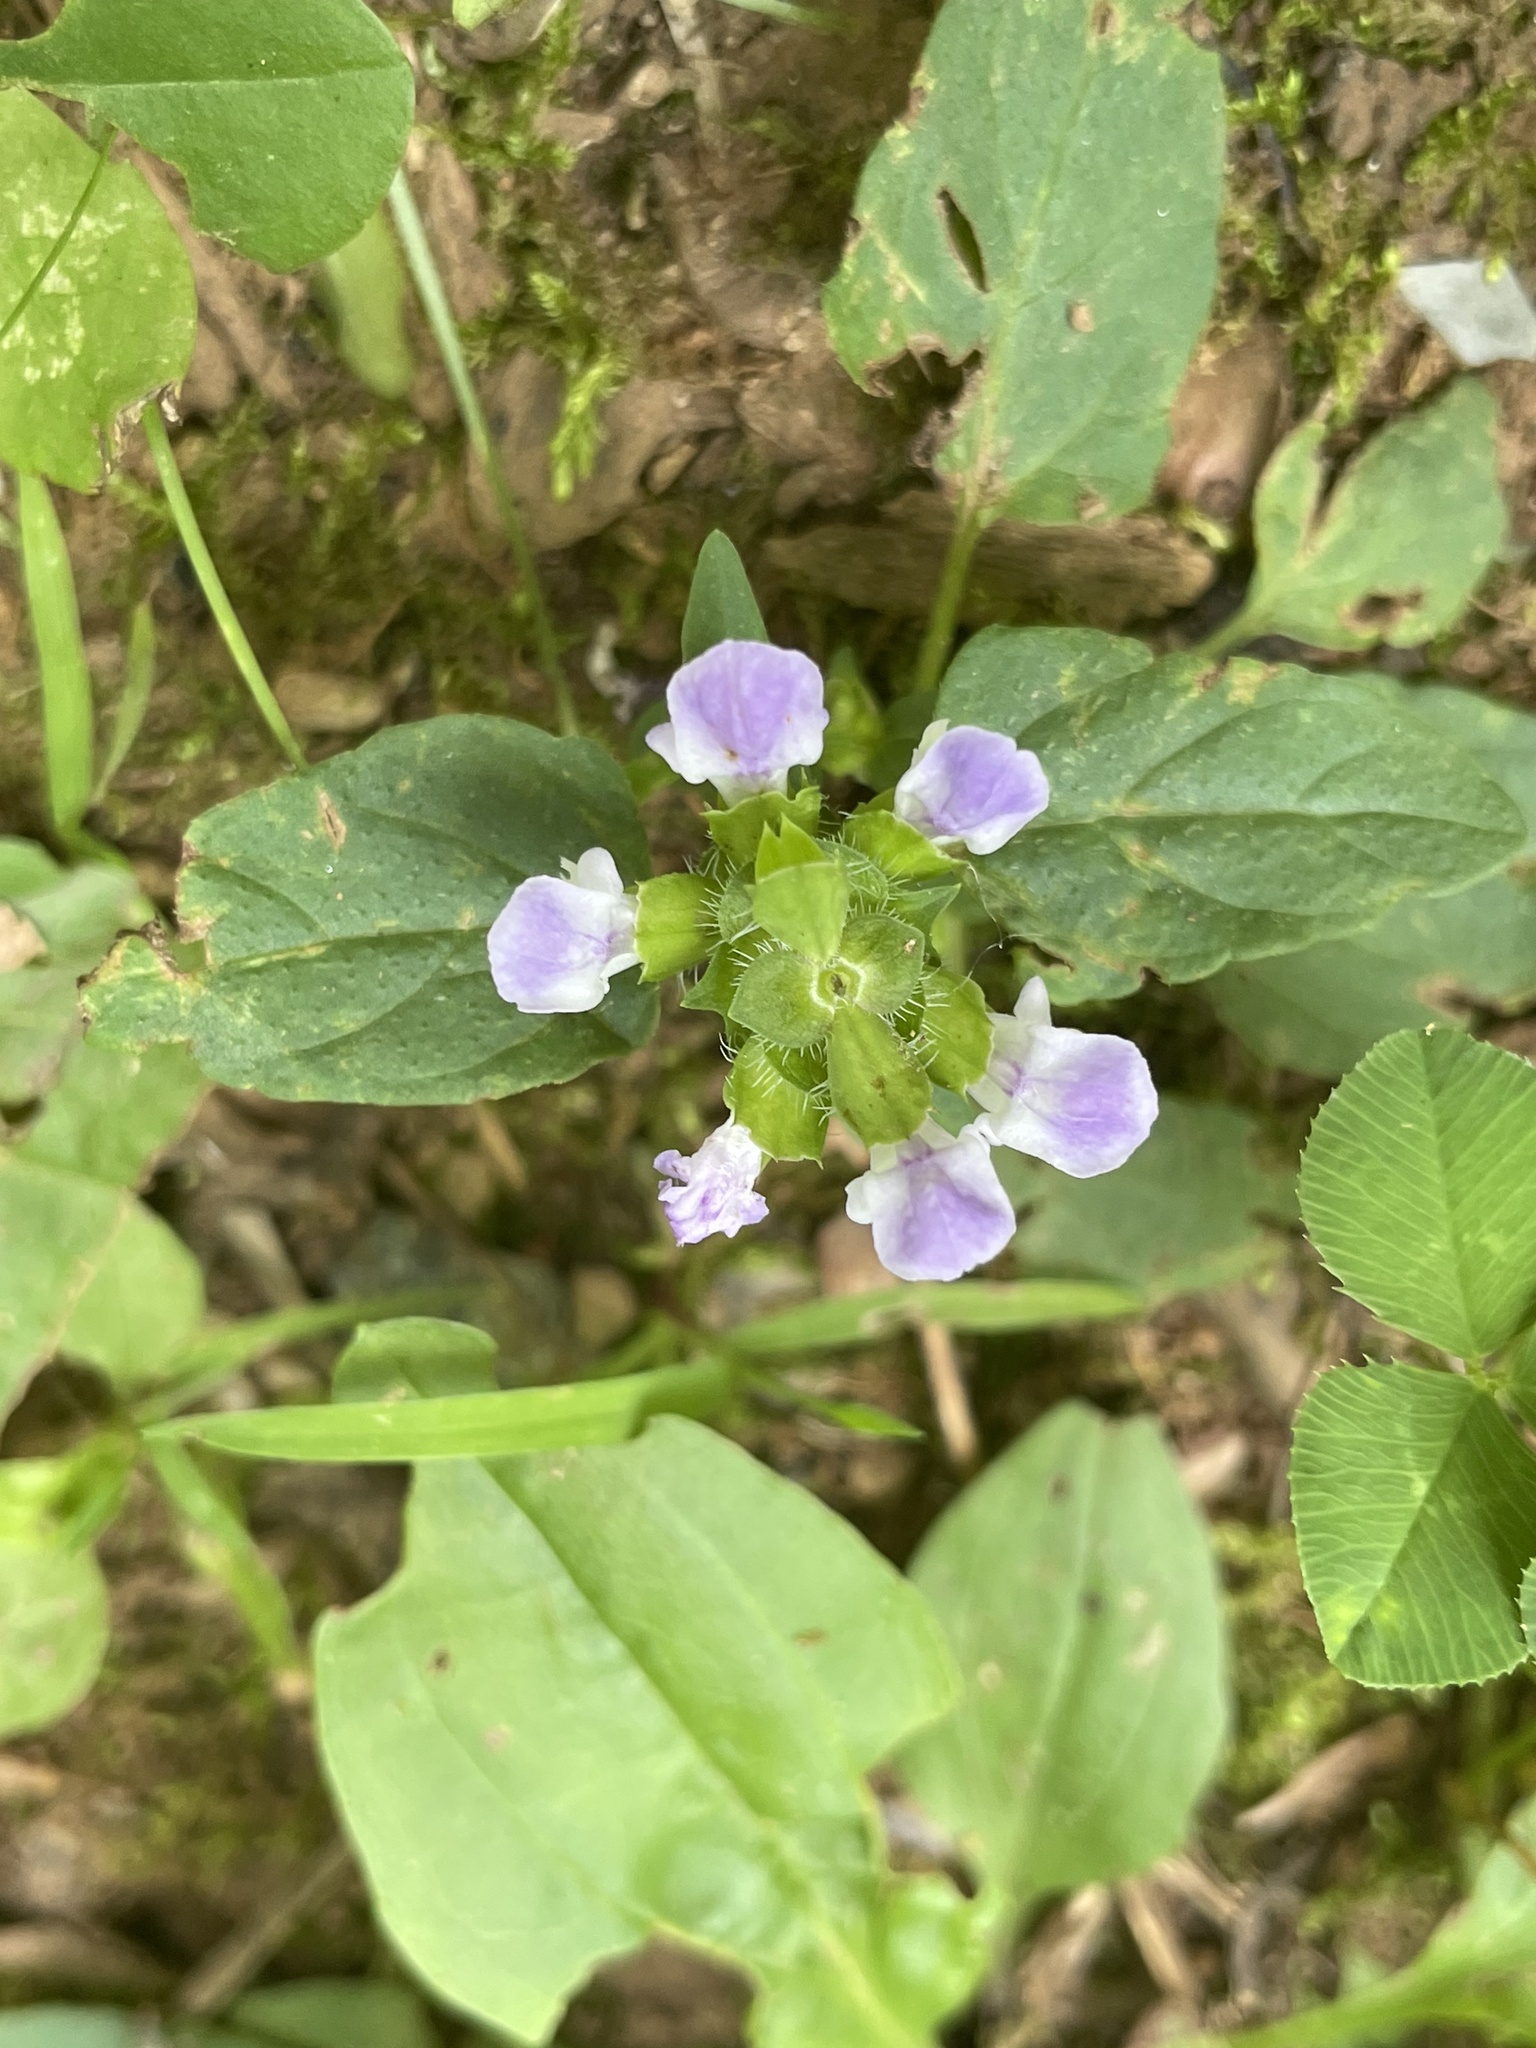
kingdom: Plantae
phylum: Tracheophyta
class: Magnoliopsida
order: Lamiales
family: Lamiaceae
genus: Prunella
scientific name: Prunella vulgaris
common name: Heal-all
